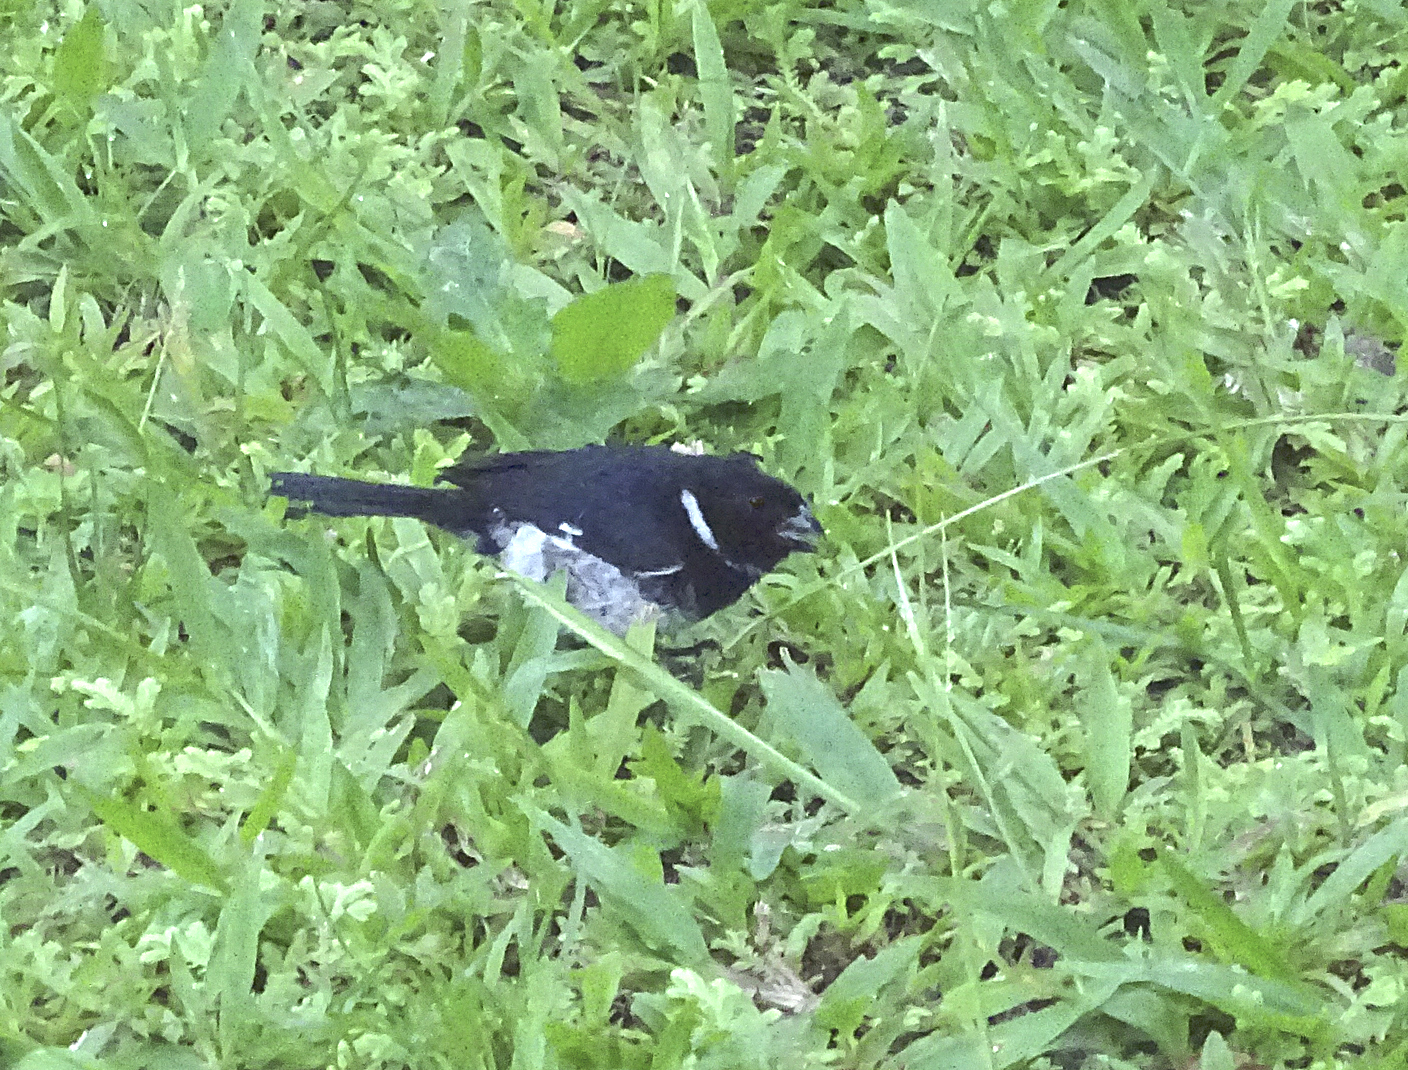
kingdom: Animalia
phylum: Chordata
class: Aves
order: Passeriformes
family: Thraupidae
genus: Sporophila
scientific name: Sporophila corvina
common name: Variable seedeater
